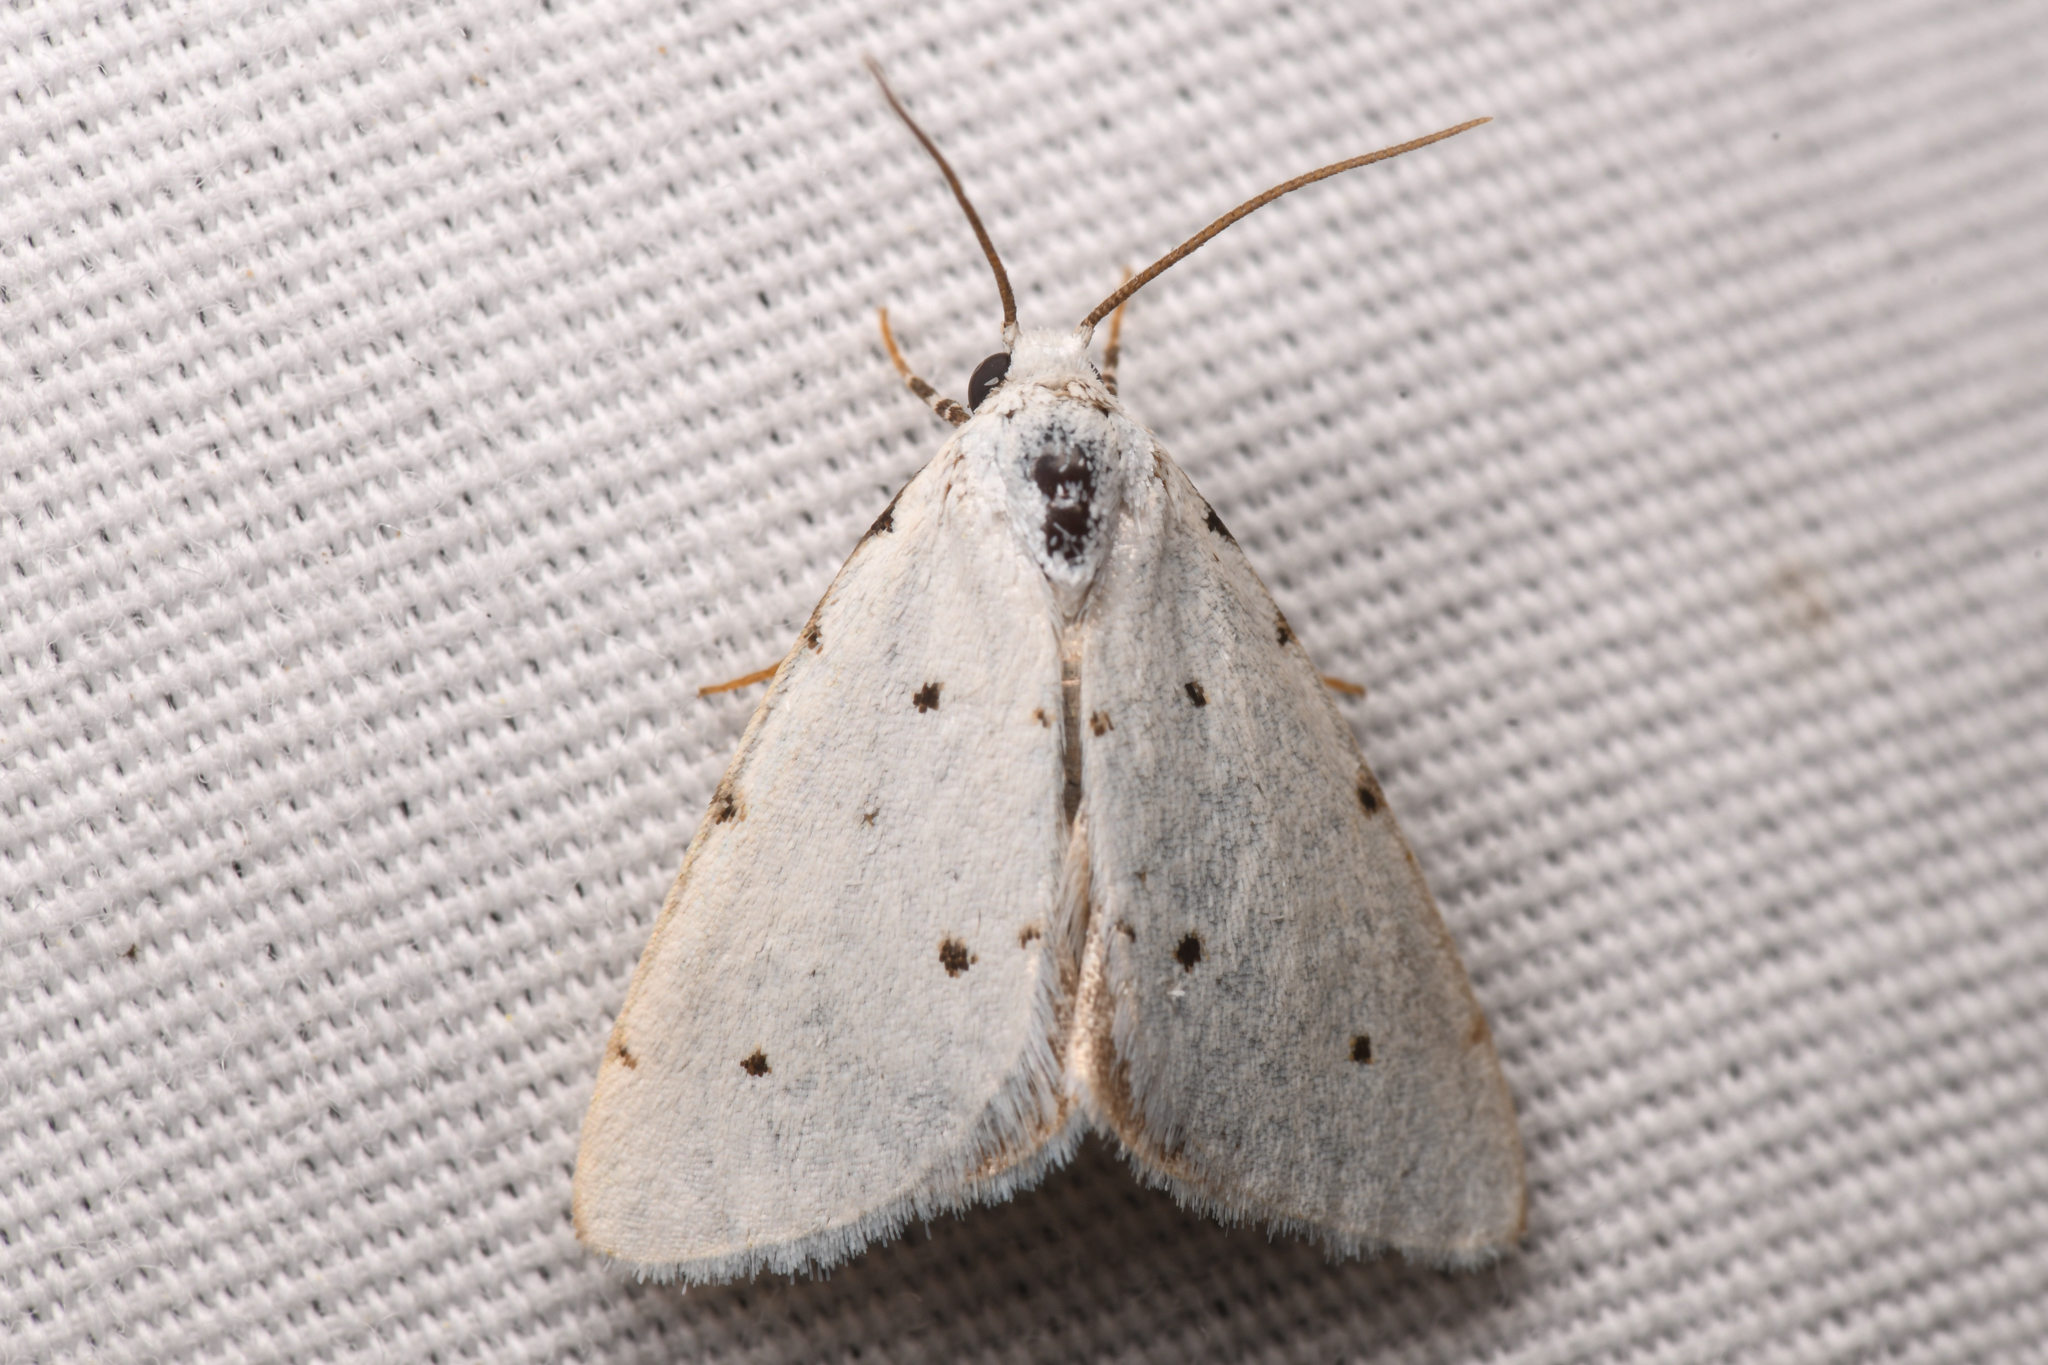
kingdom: Animalia
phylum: Arthropoda
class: Insecta
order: Lepidoptera
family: Noctuidae
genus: Grotellaforma
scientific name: Grotellaforma lactea
